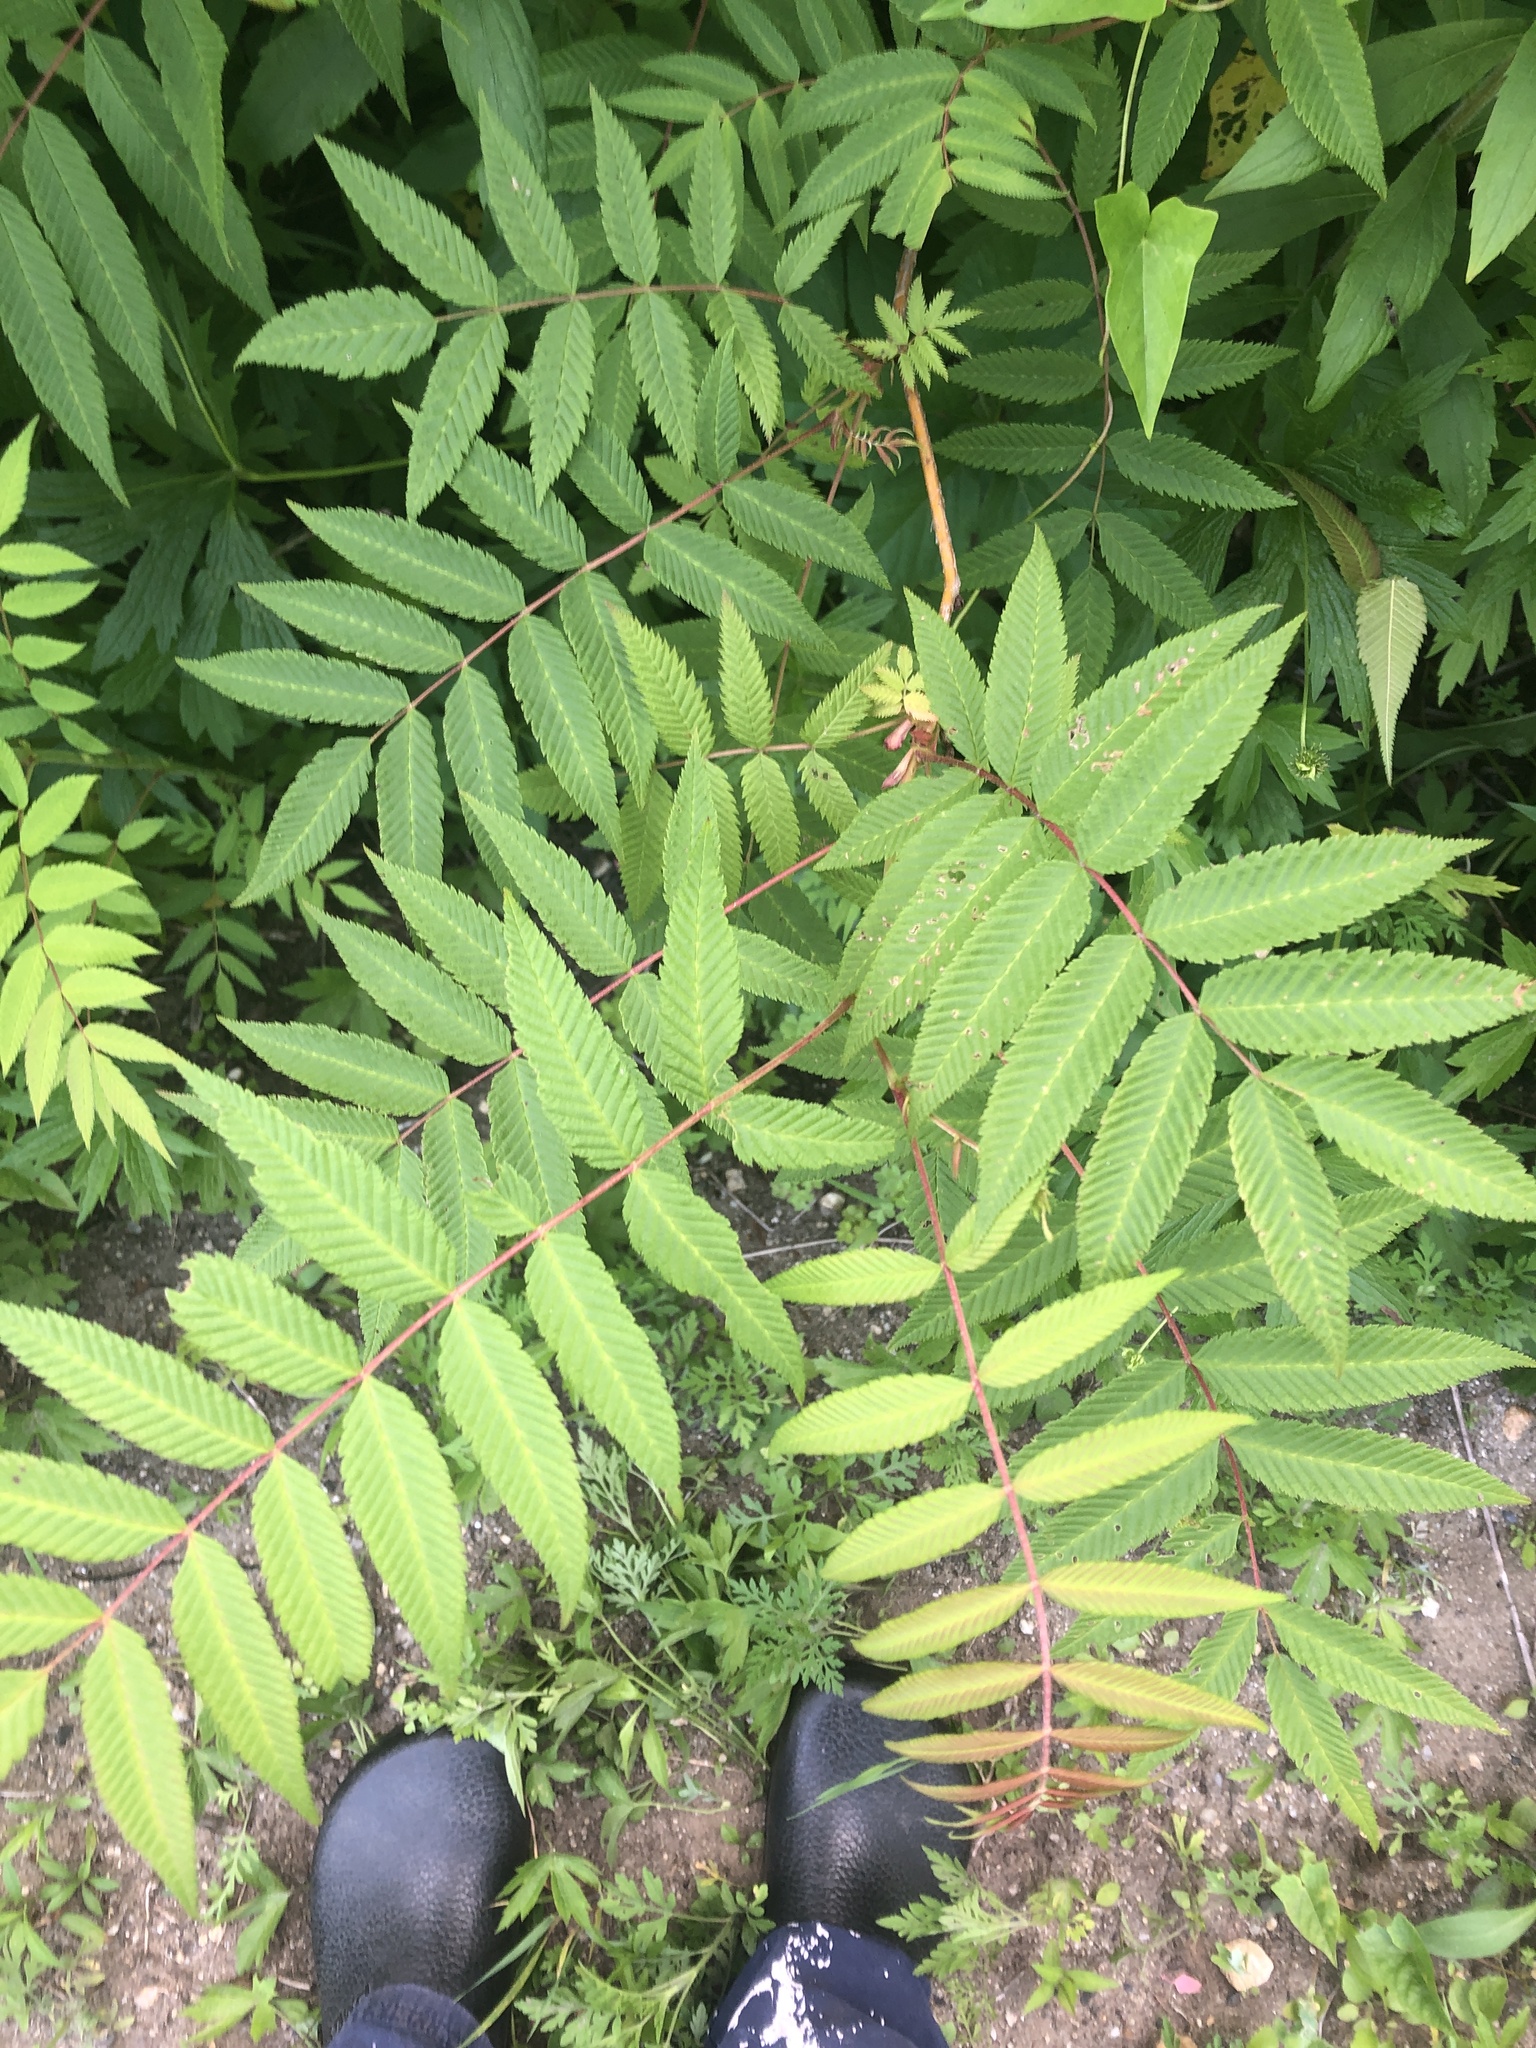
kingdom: Plantae
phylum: Tracheophyta
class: Magnoliopsida
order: Rosales
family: Rosaceae
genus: Sorbaria
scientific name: Sorbaria sorbifolia
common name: False spiraea
